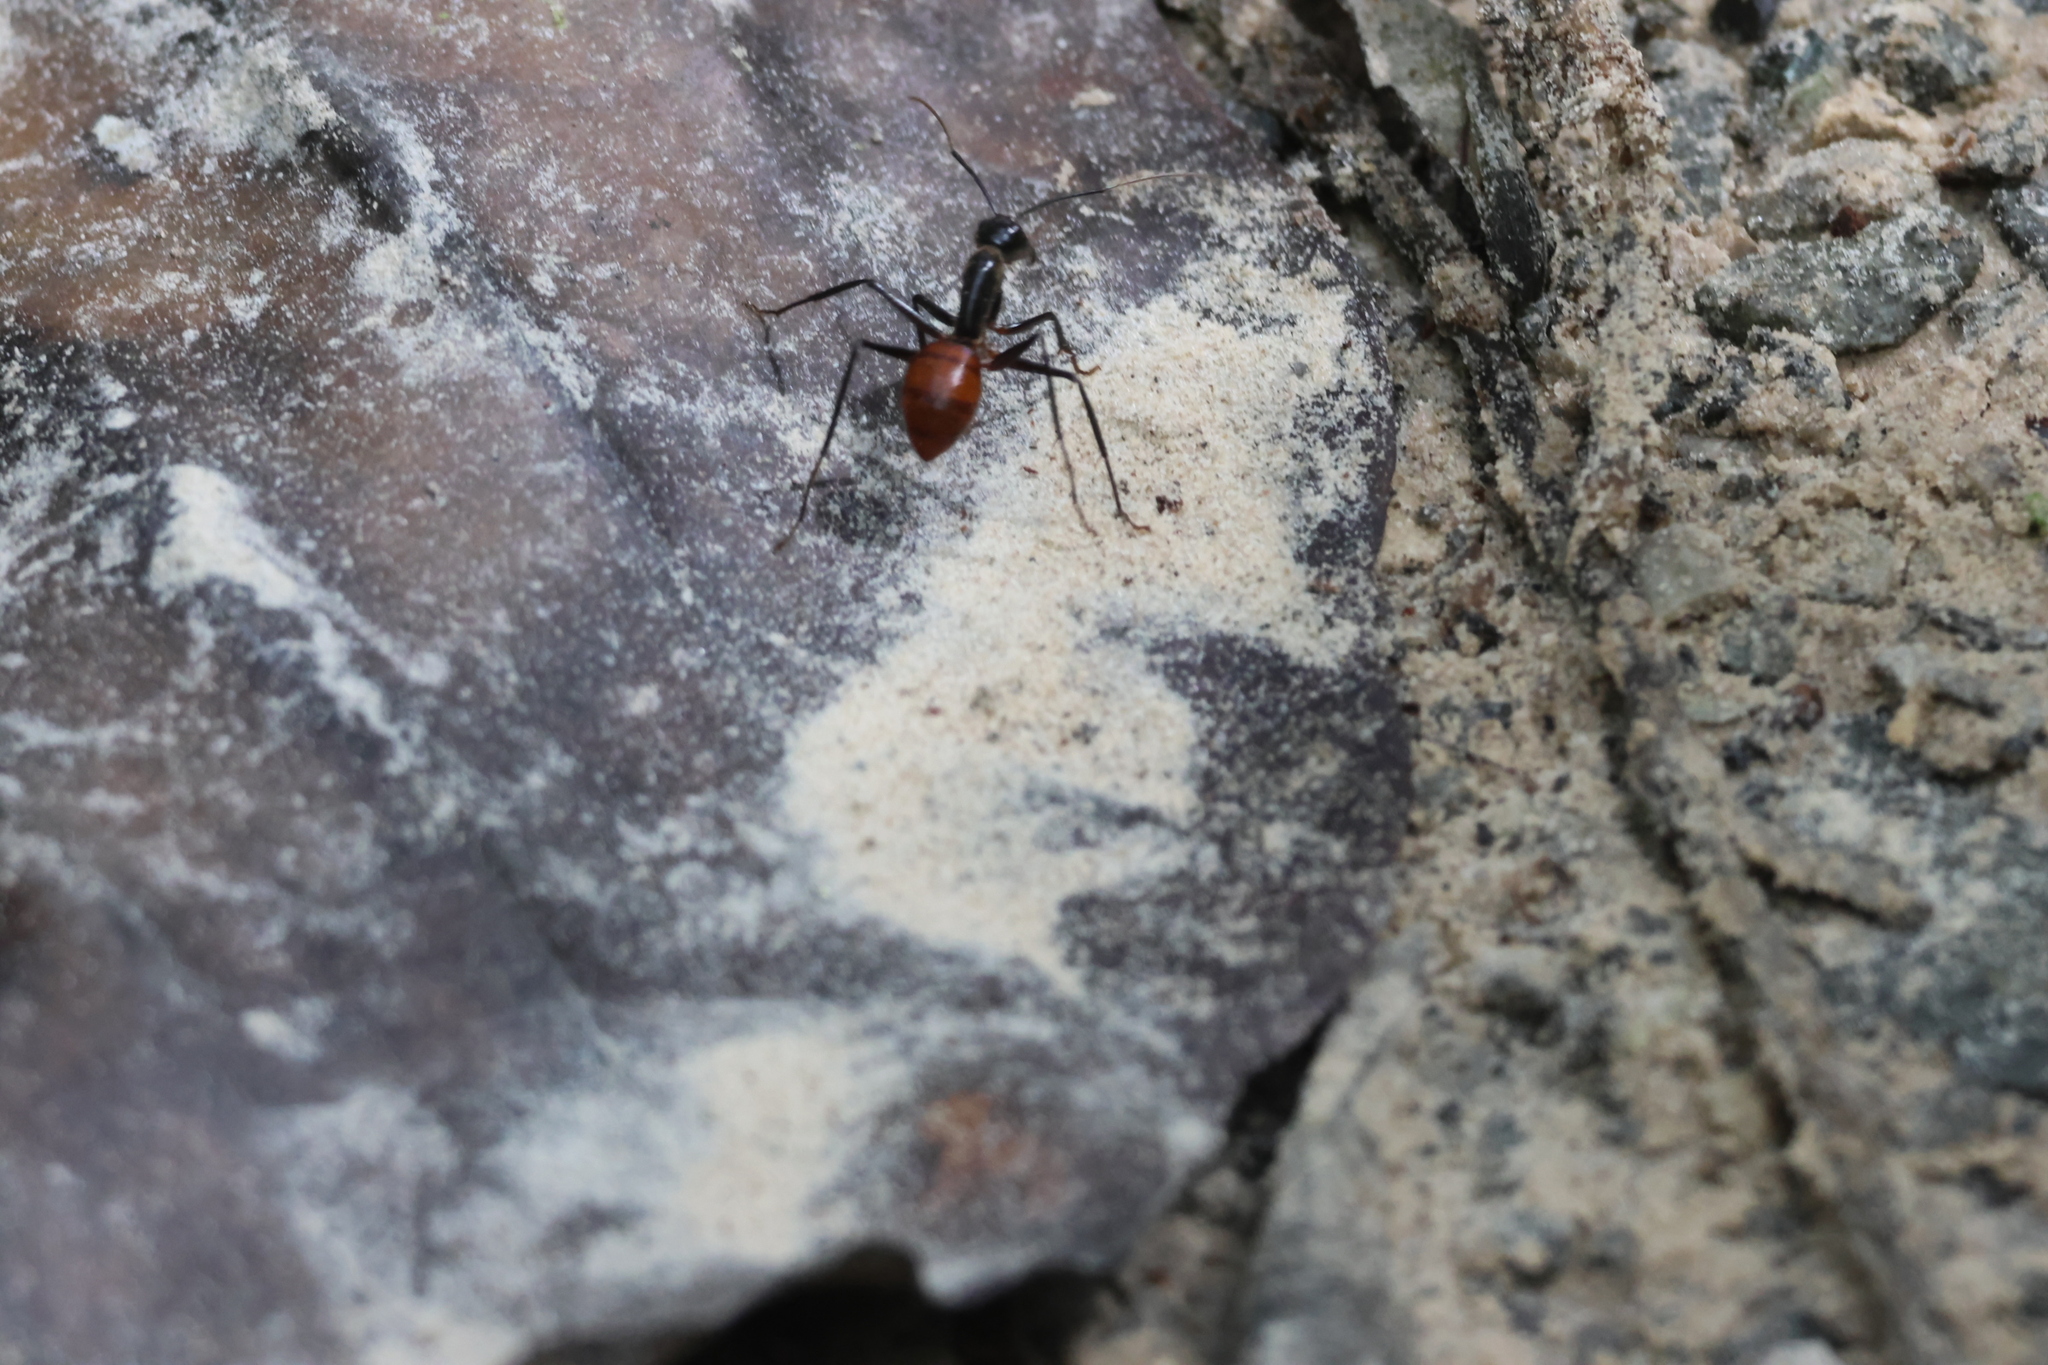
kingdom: Animalia
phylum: Arthropoda
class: Insecta
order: Hymenoptera
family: Formicidae
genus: Dinomyrmex
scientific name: Dinomyrmex
